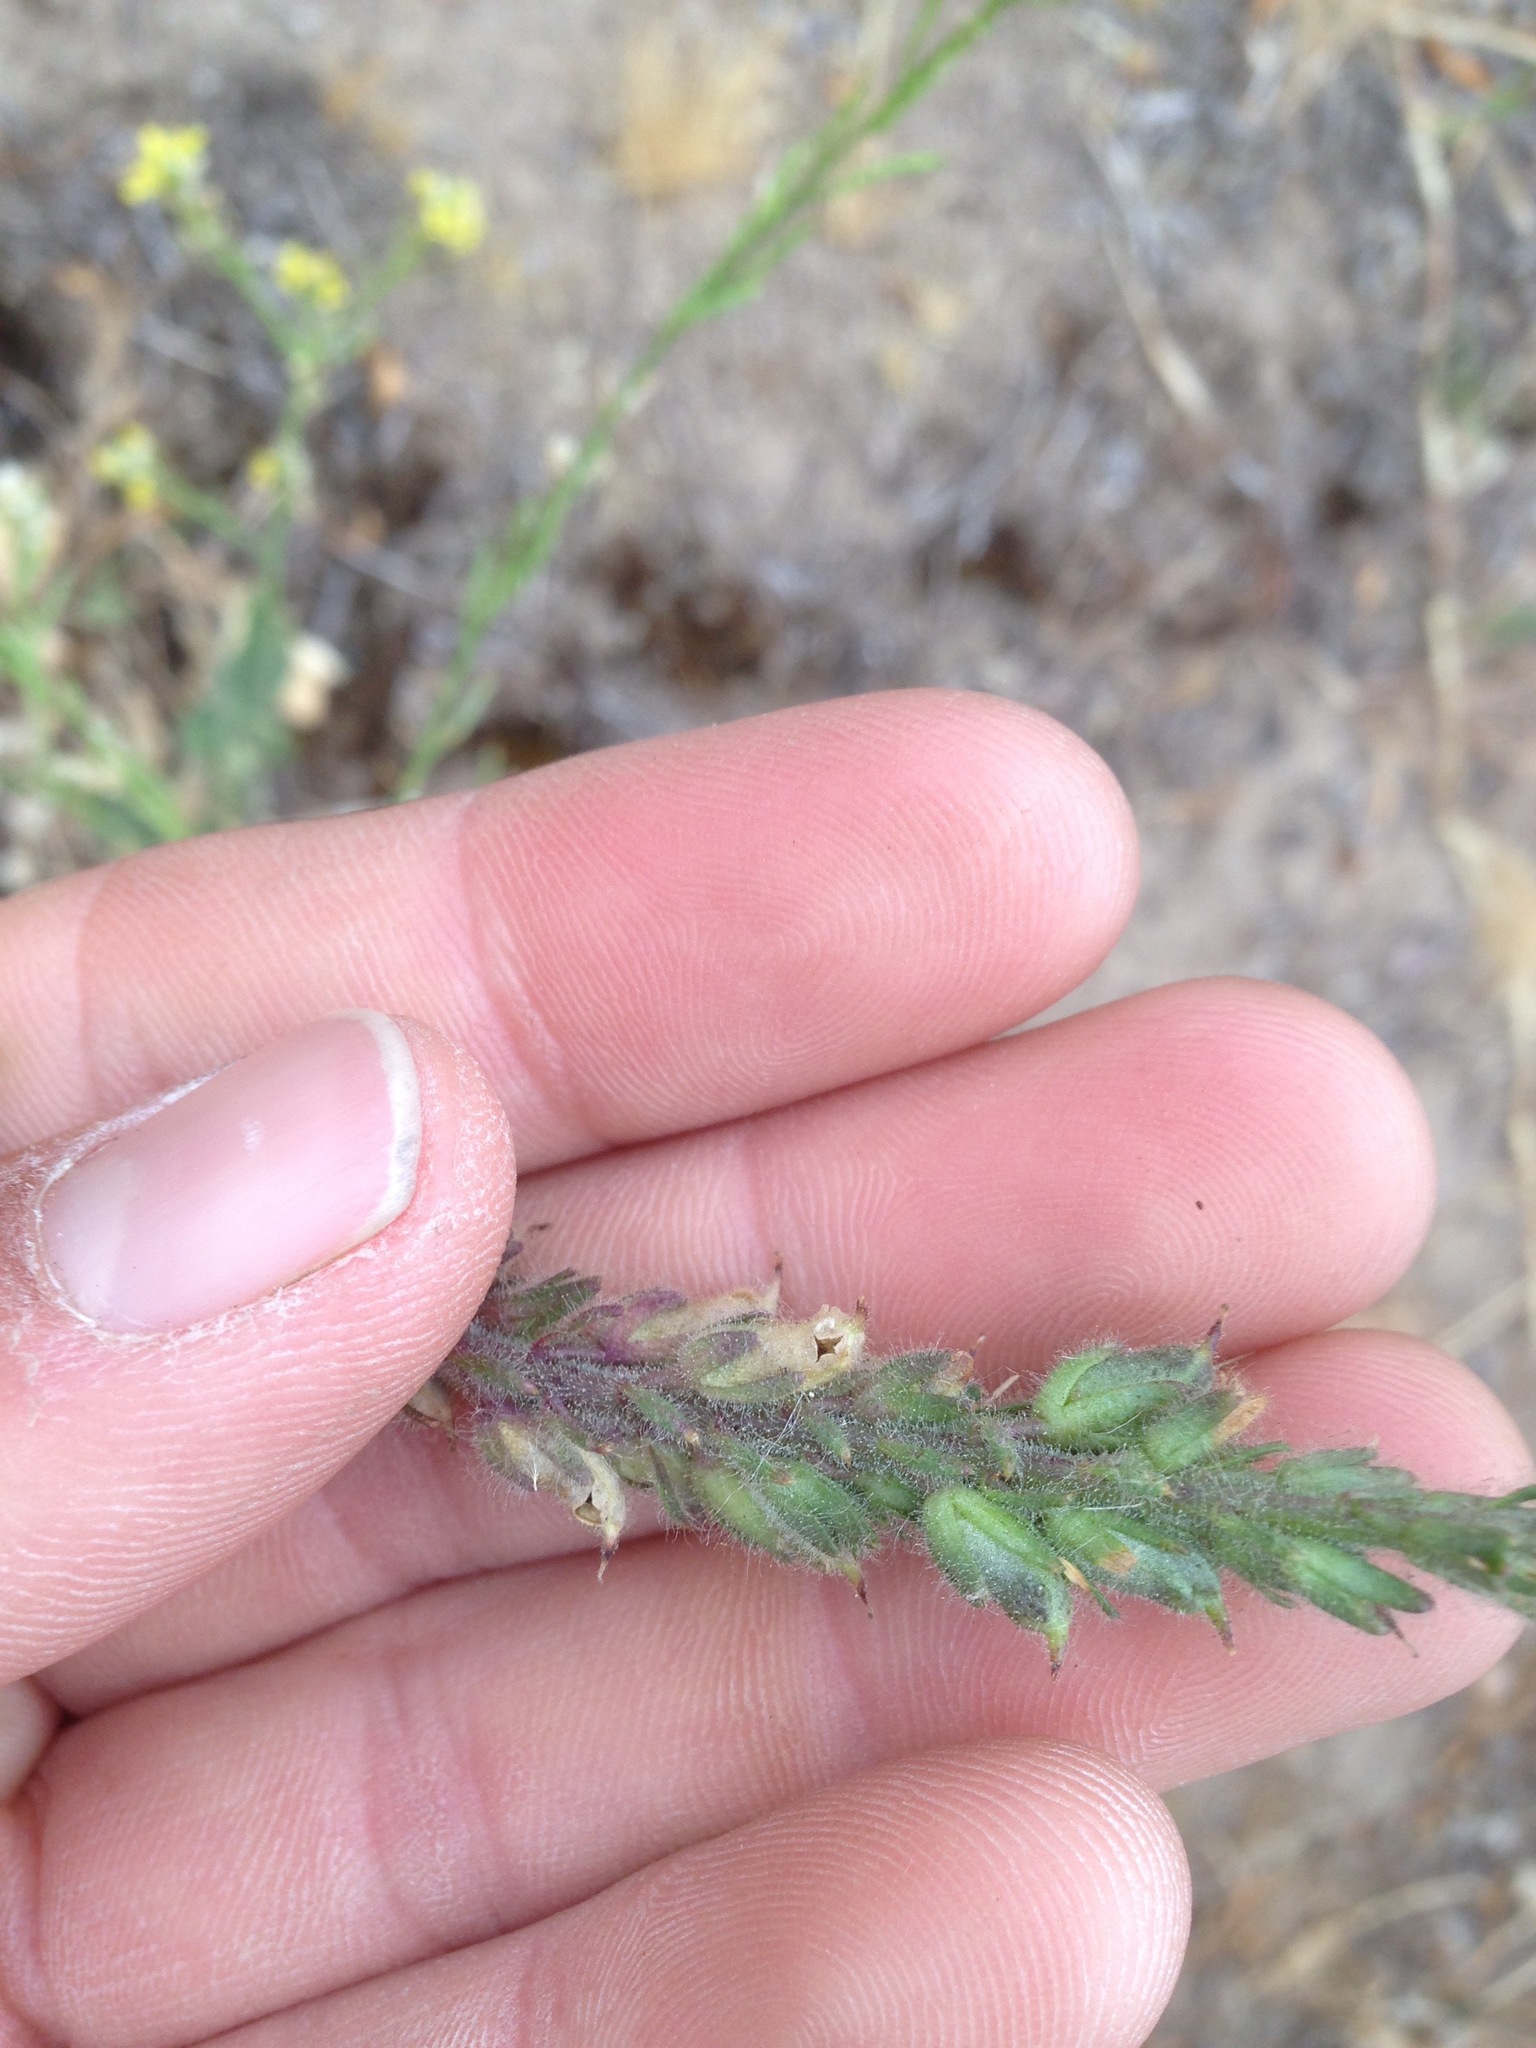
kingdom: Plantae
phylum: Tracheophyta
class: Magnoliopsida
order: Lamiales
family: Plantaginaceae
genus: Sairocarpus
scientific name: Sairocarpus coulterianus
